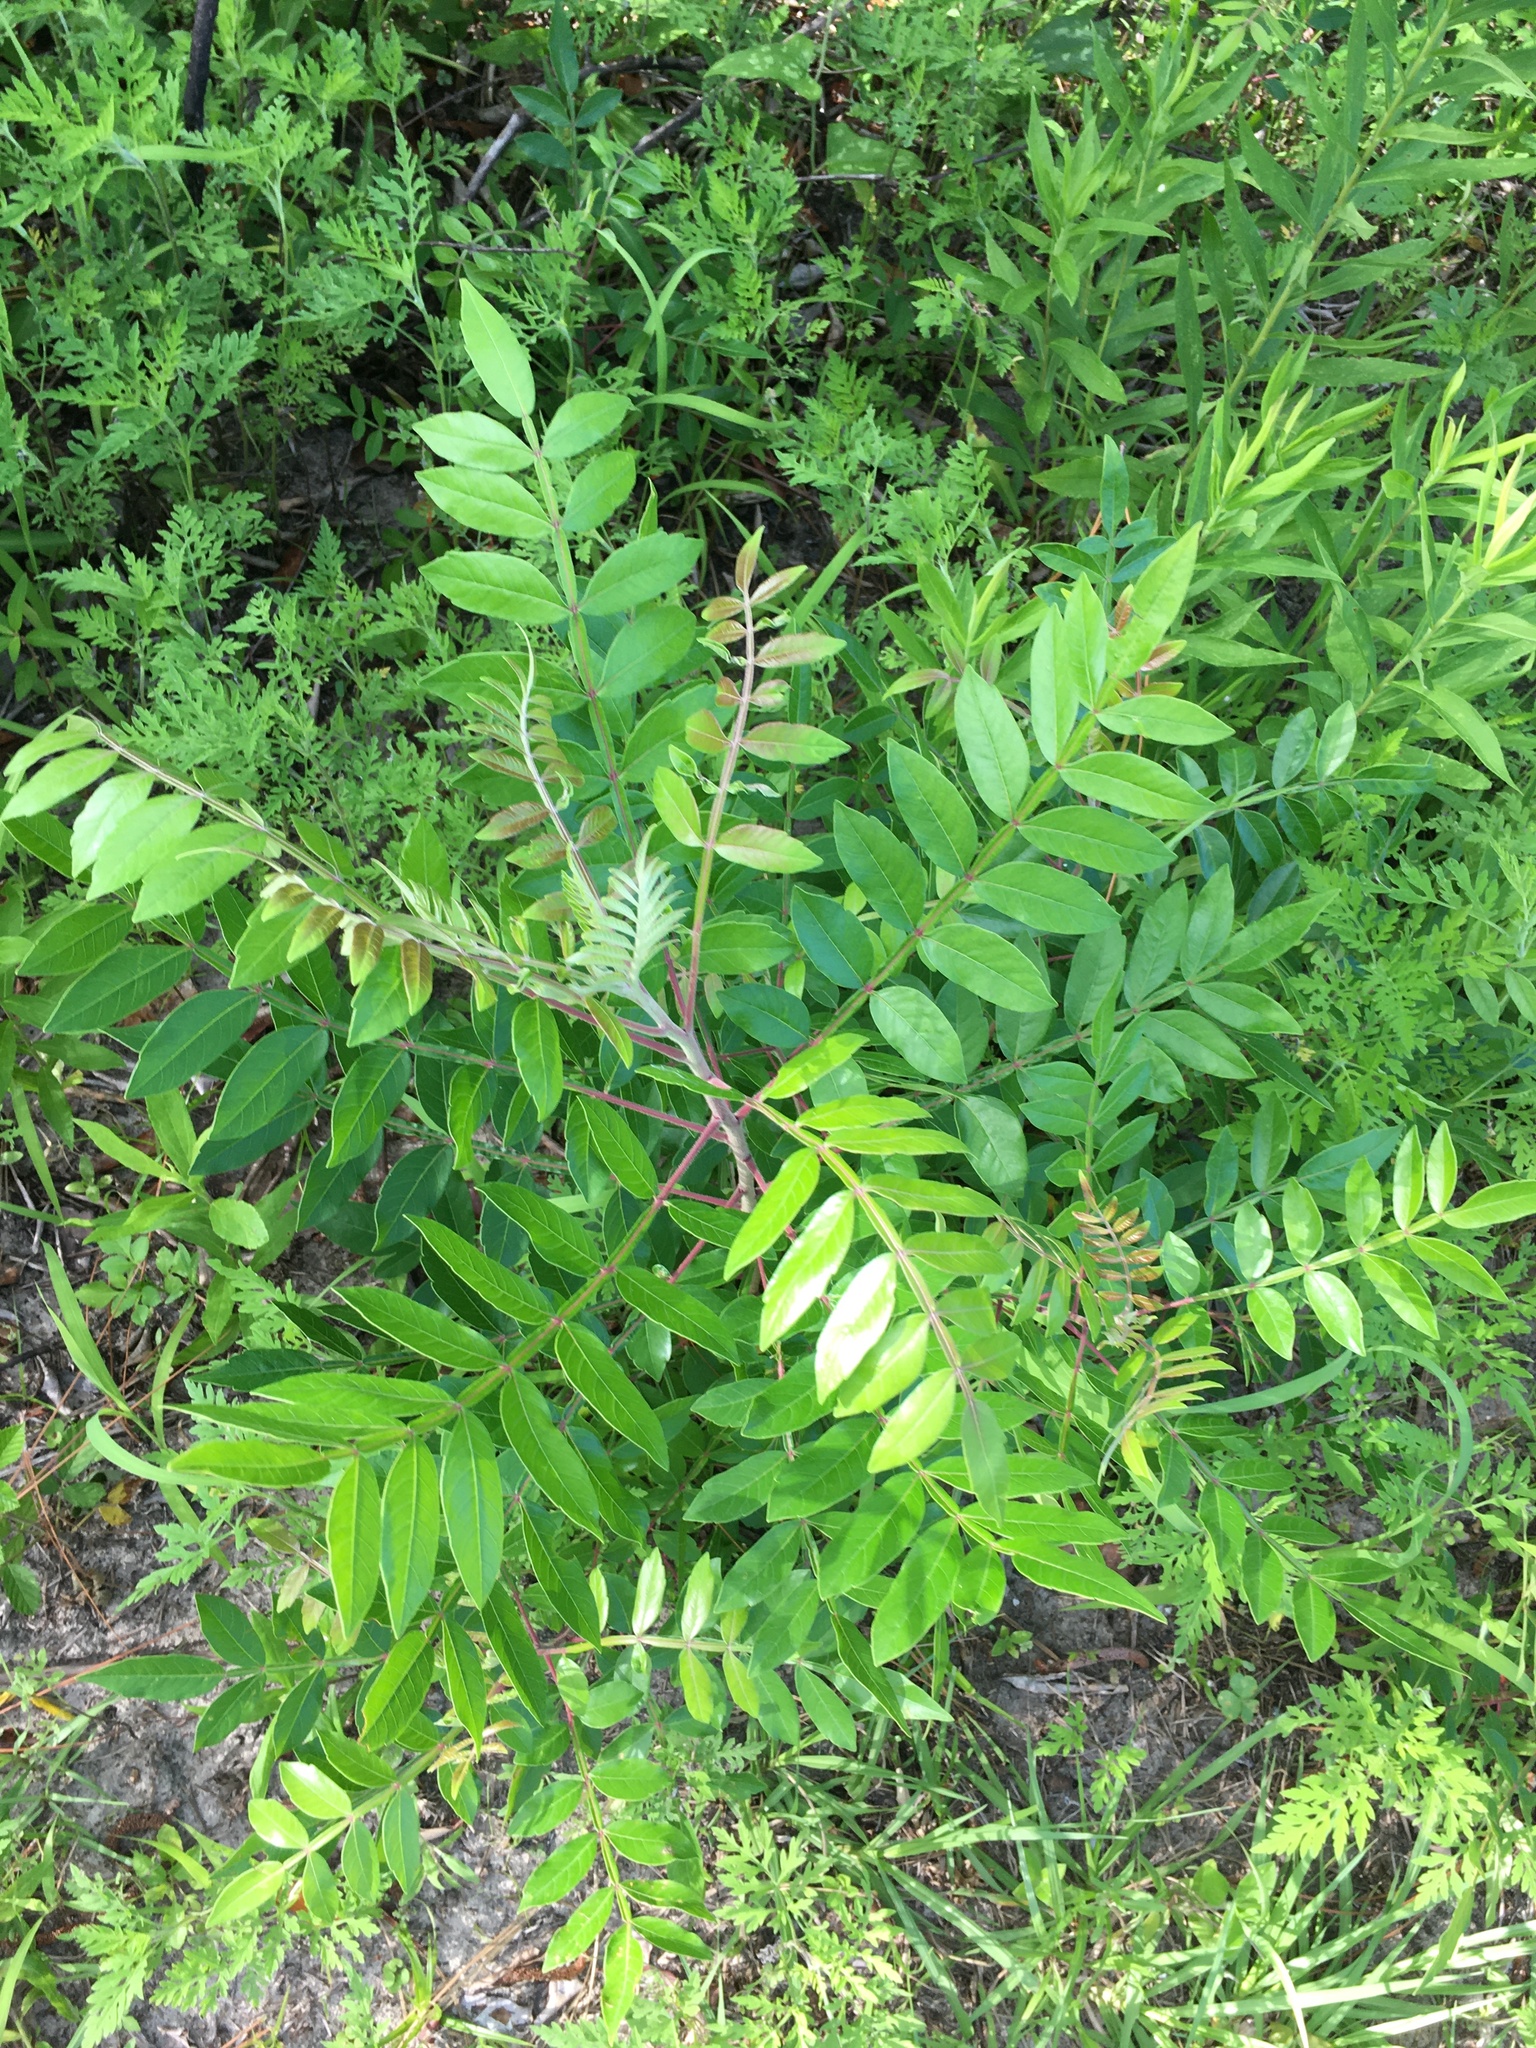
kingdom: Plantae
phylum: Tracheophyta
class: Magnoliopsida
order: Sapindales
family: Anacardiaceae
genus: Rhus
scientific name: Rhus copallina
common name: Shining sumac
